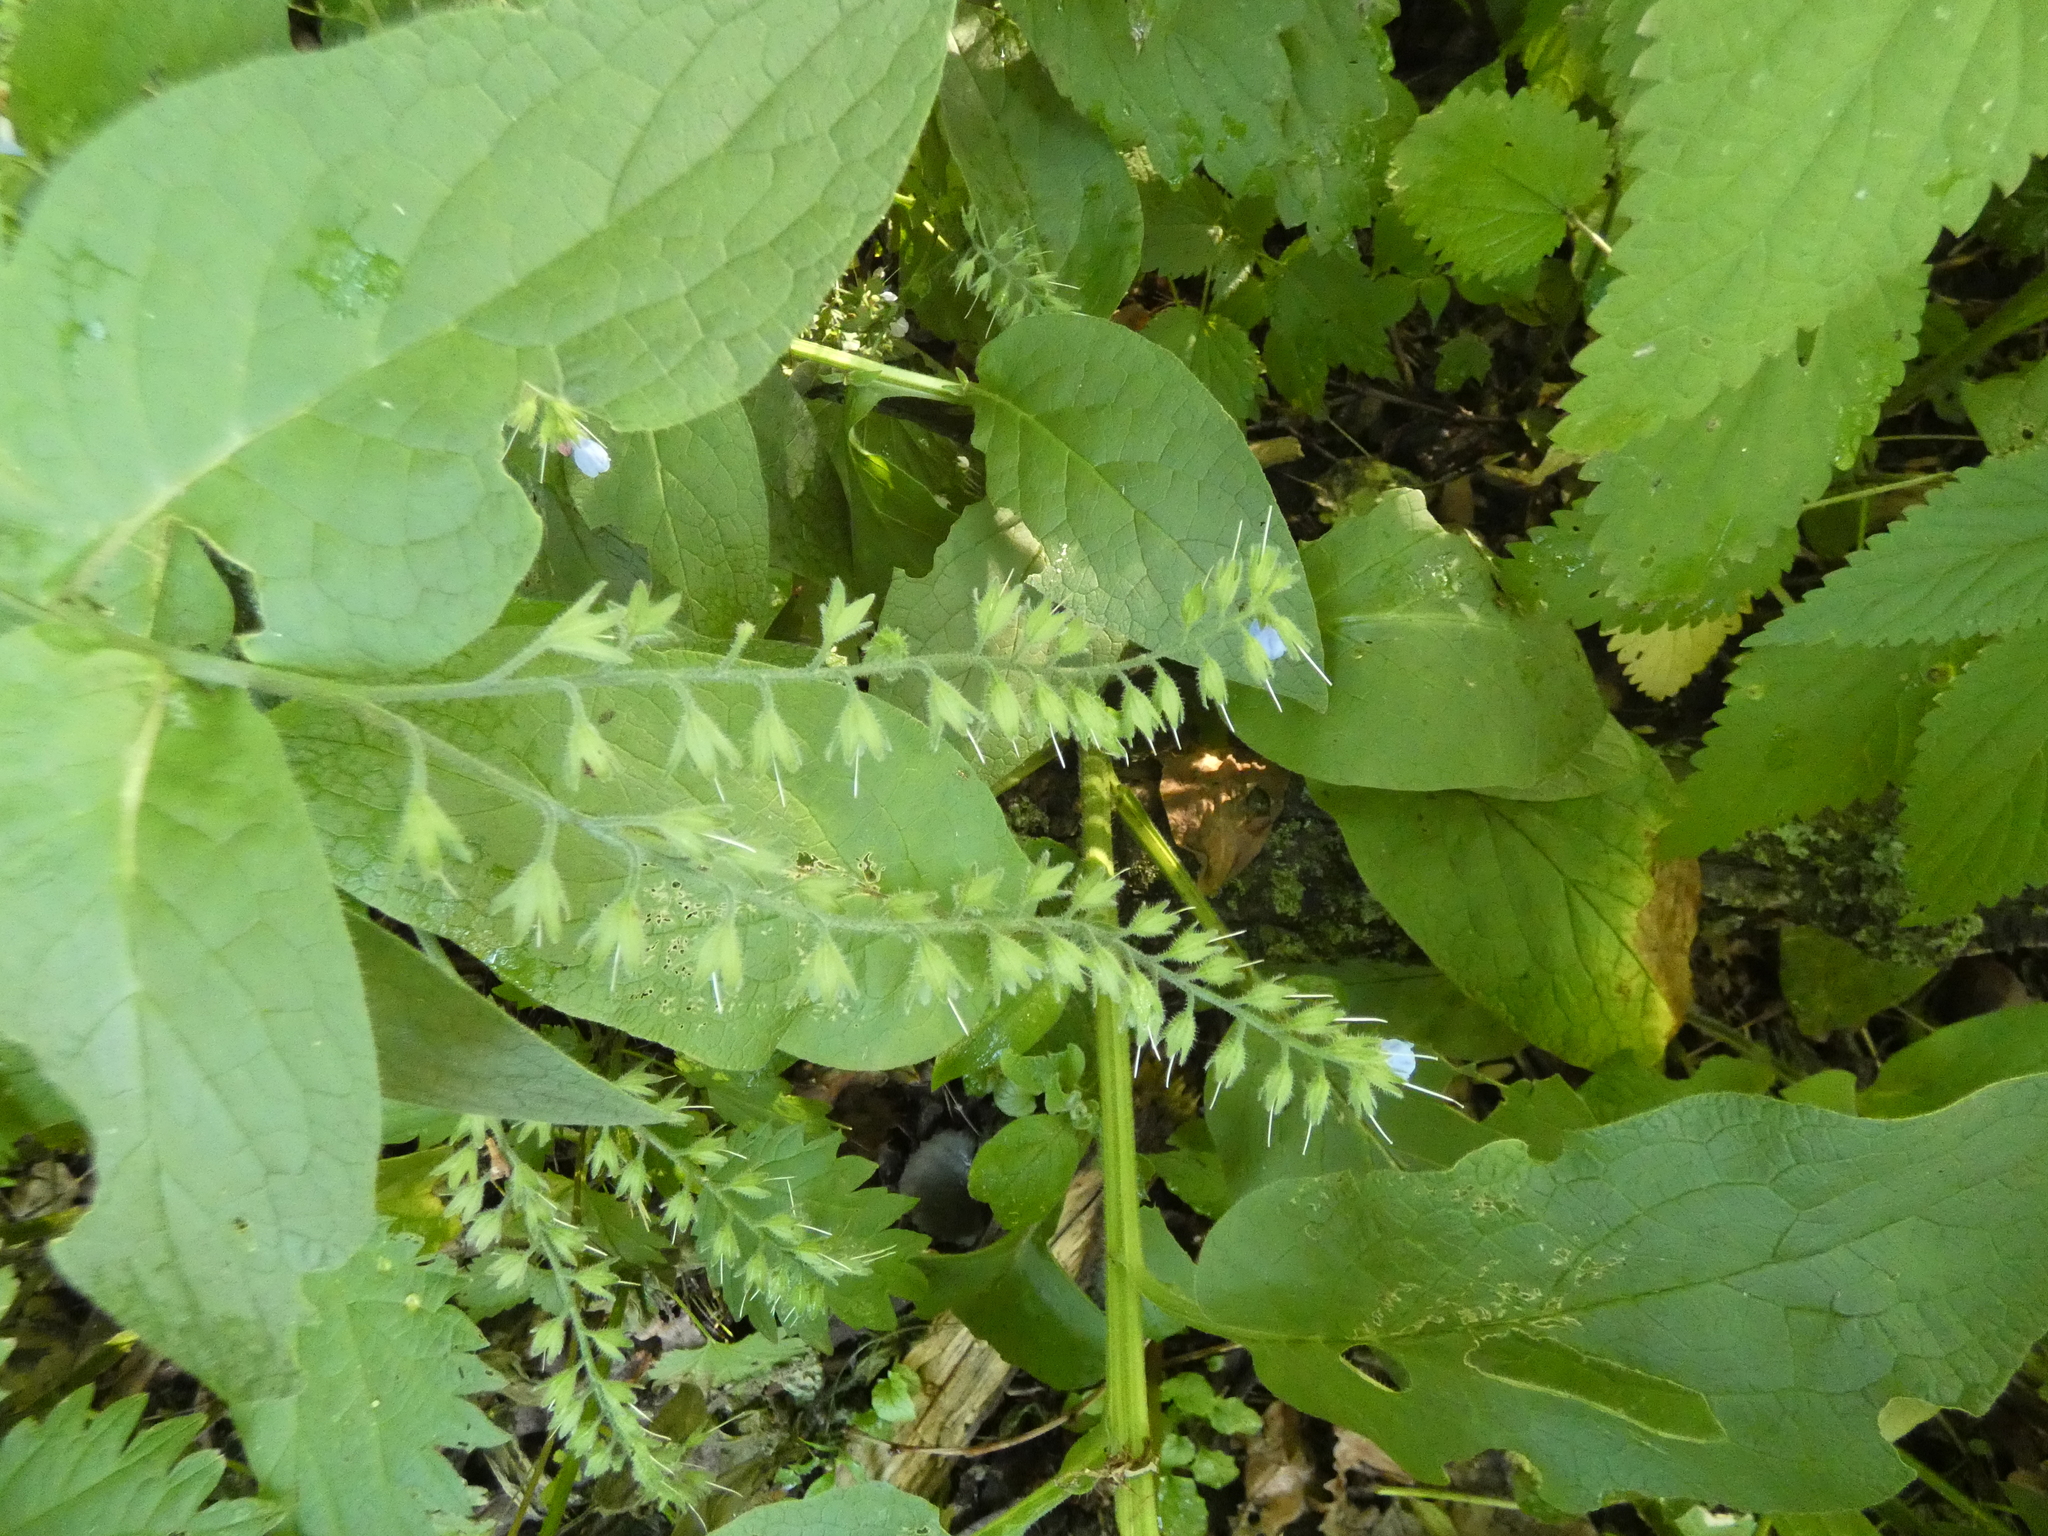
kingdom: Plantae
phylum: Tracheophyta
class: Magnoliopsida
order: Boraginales
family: Boraginaceae
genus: Symphytum
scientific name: Symphytum caucasicum
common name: Caucasian comfrey
